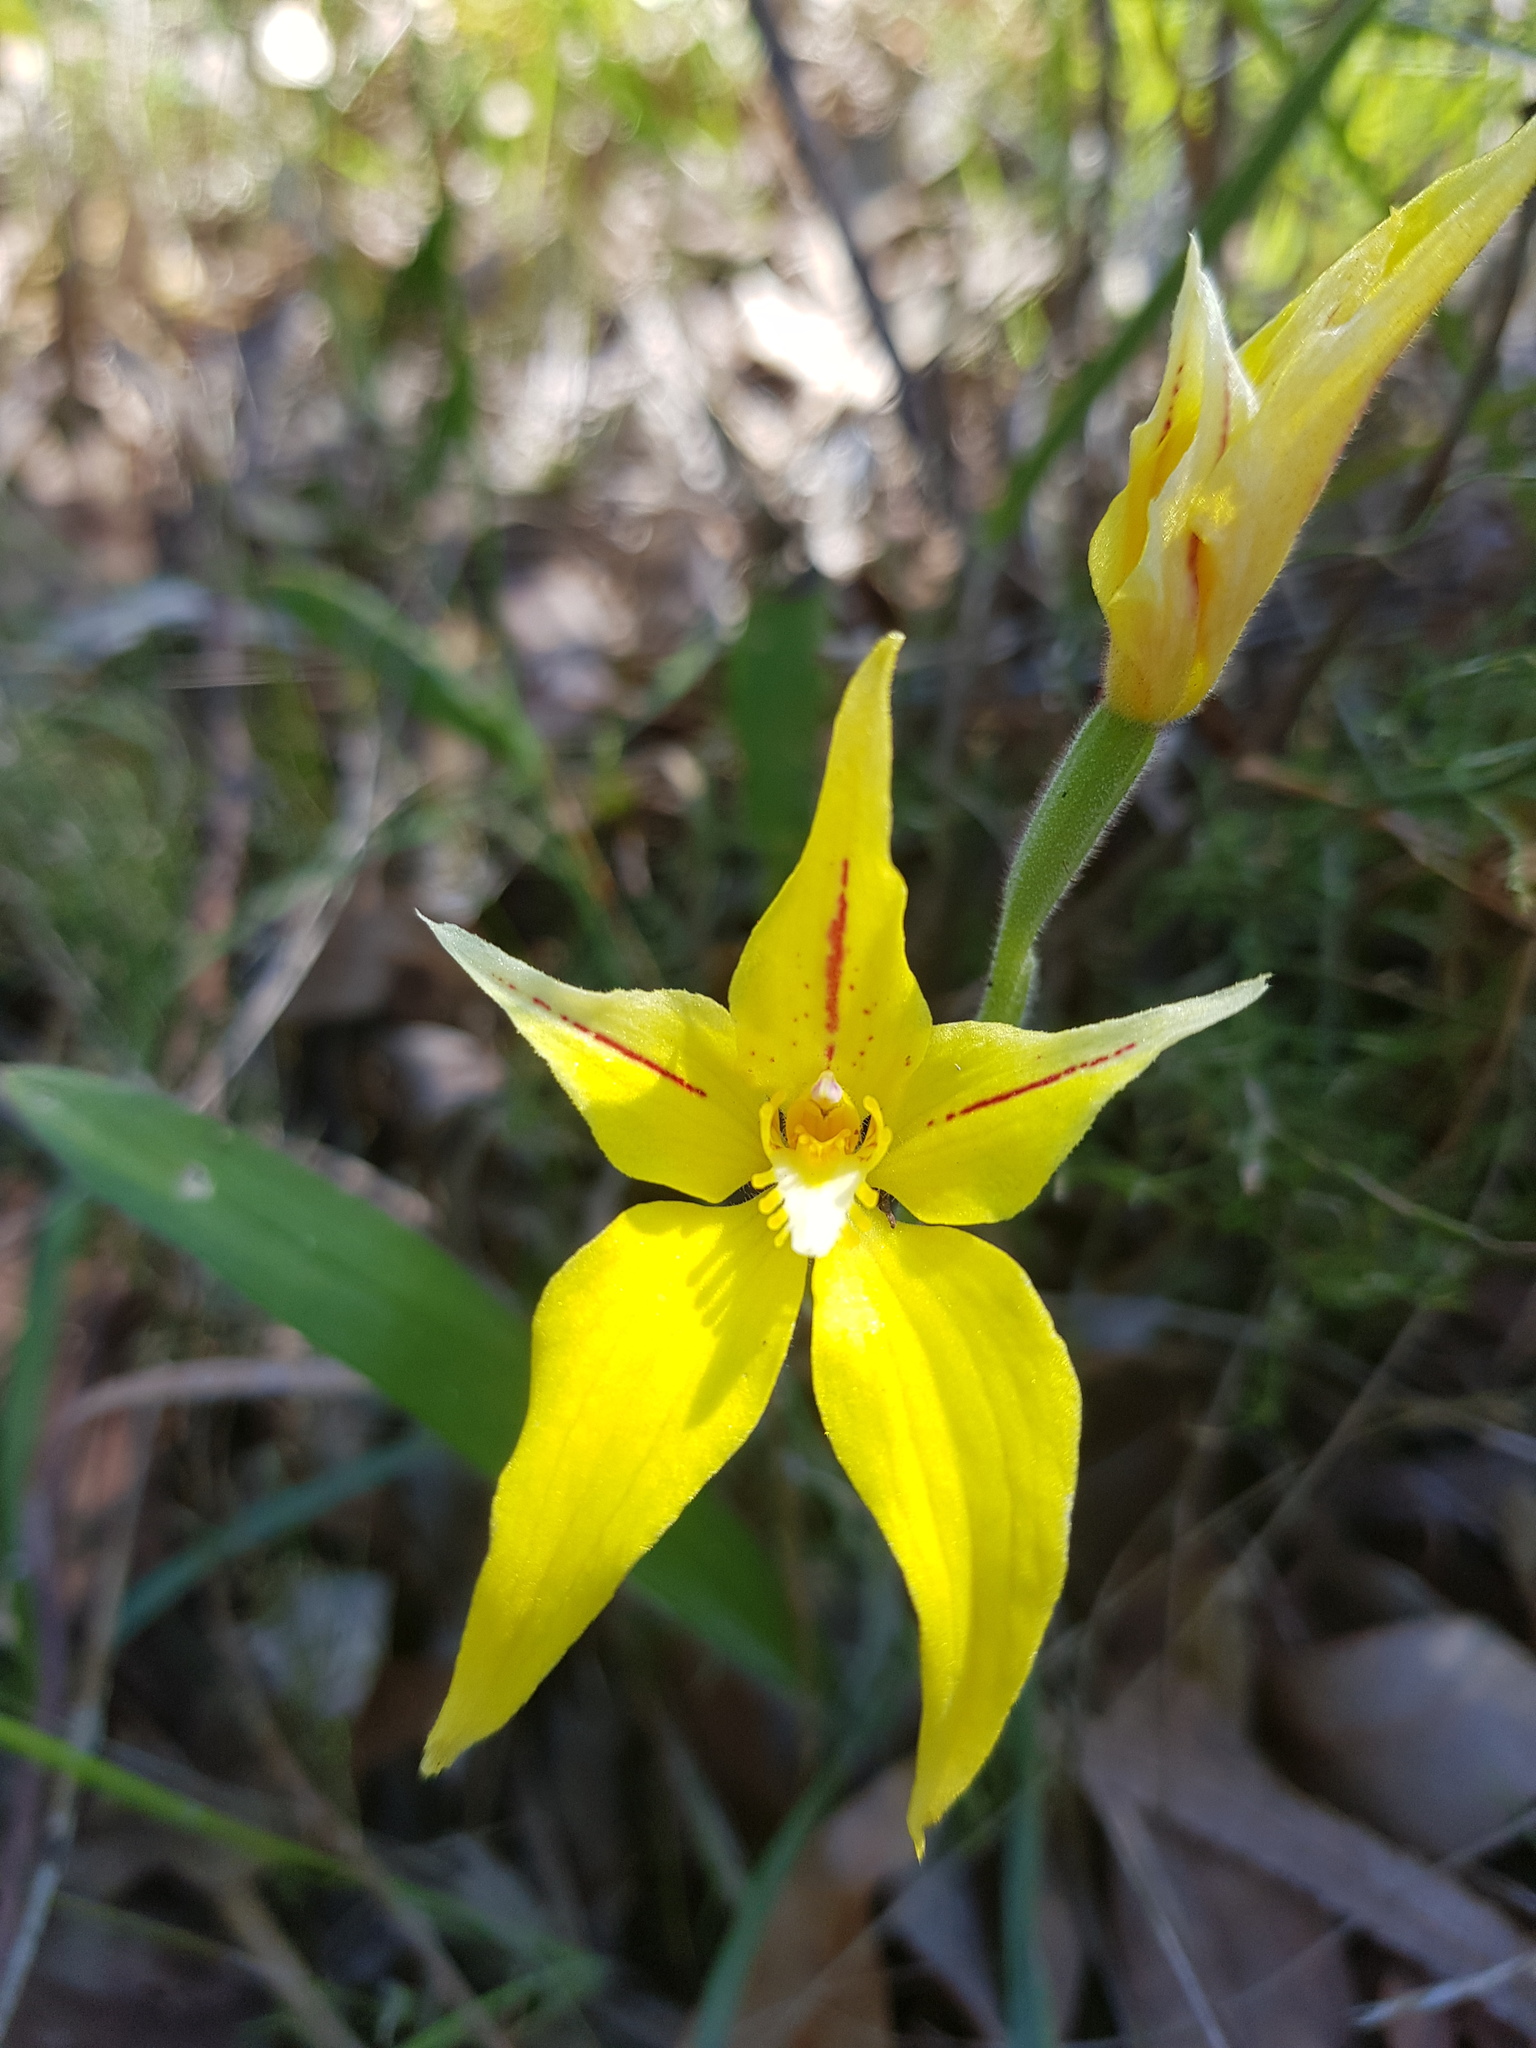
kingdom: Plantae
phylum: Tracheophyta
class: Liliopsida
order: Asparagales
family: Orchidaceae
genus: Caladenia
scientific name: Caladenia flava
